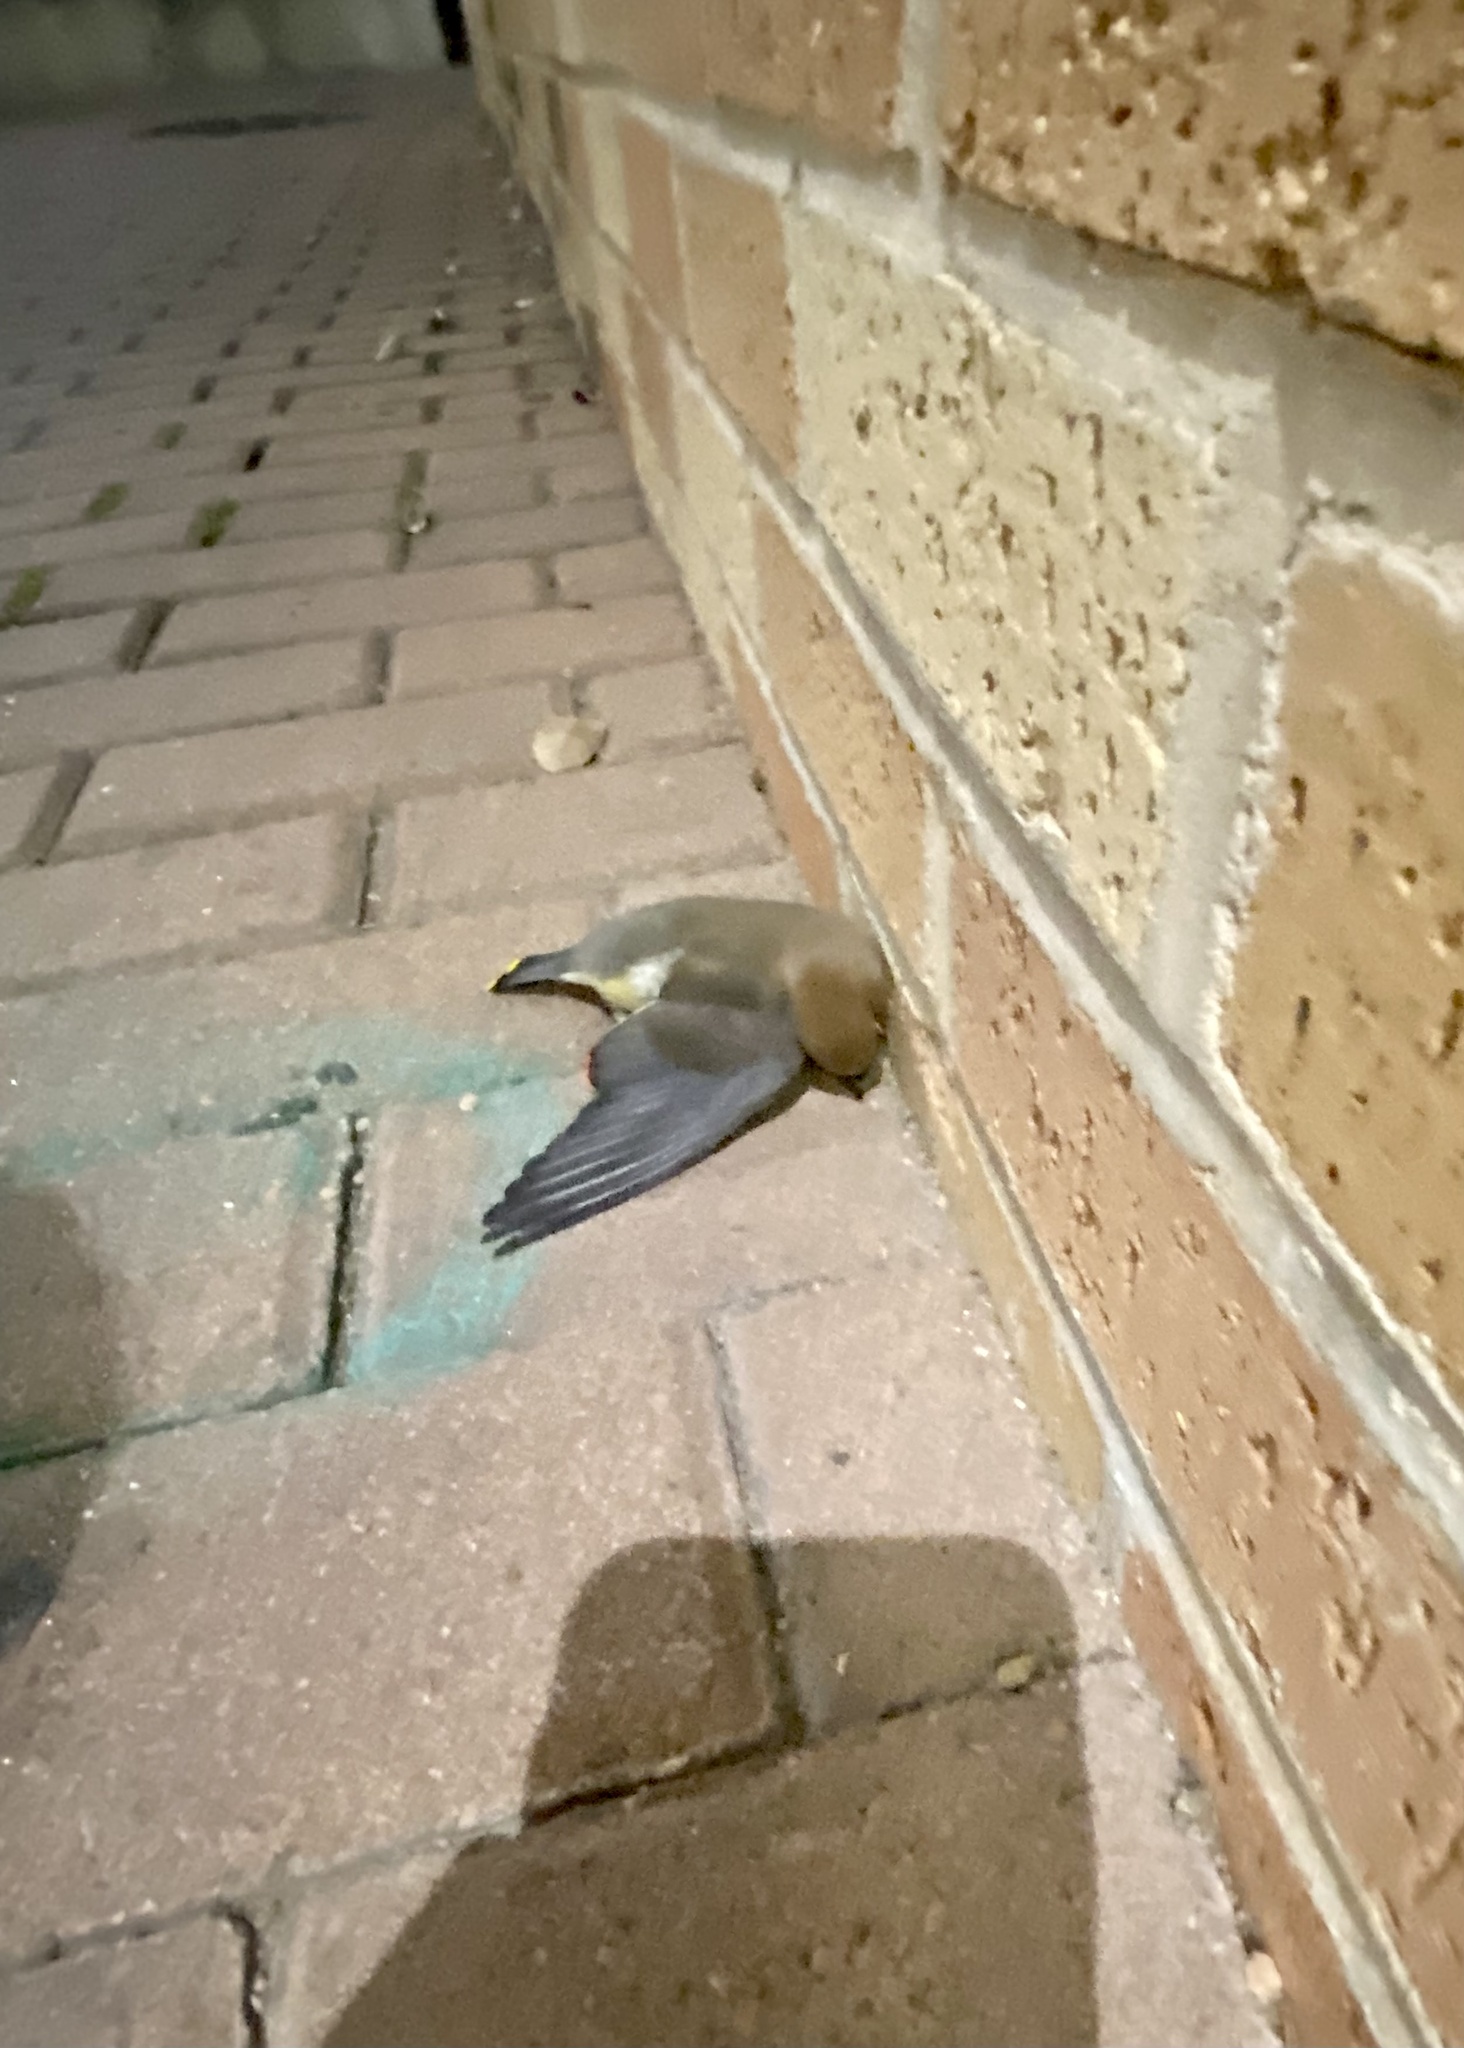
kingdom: Animalia
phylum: Chordata
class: Aves
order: Passeriformes
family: Bombycillidae
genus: Bombycilla
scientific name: Bombycilla cedrorum
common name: Cedar waxwing
